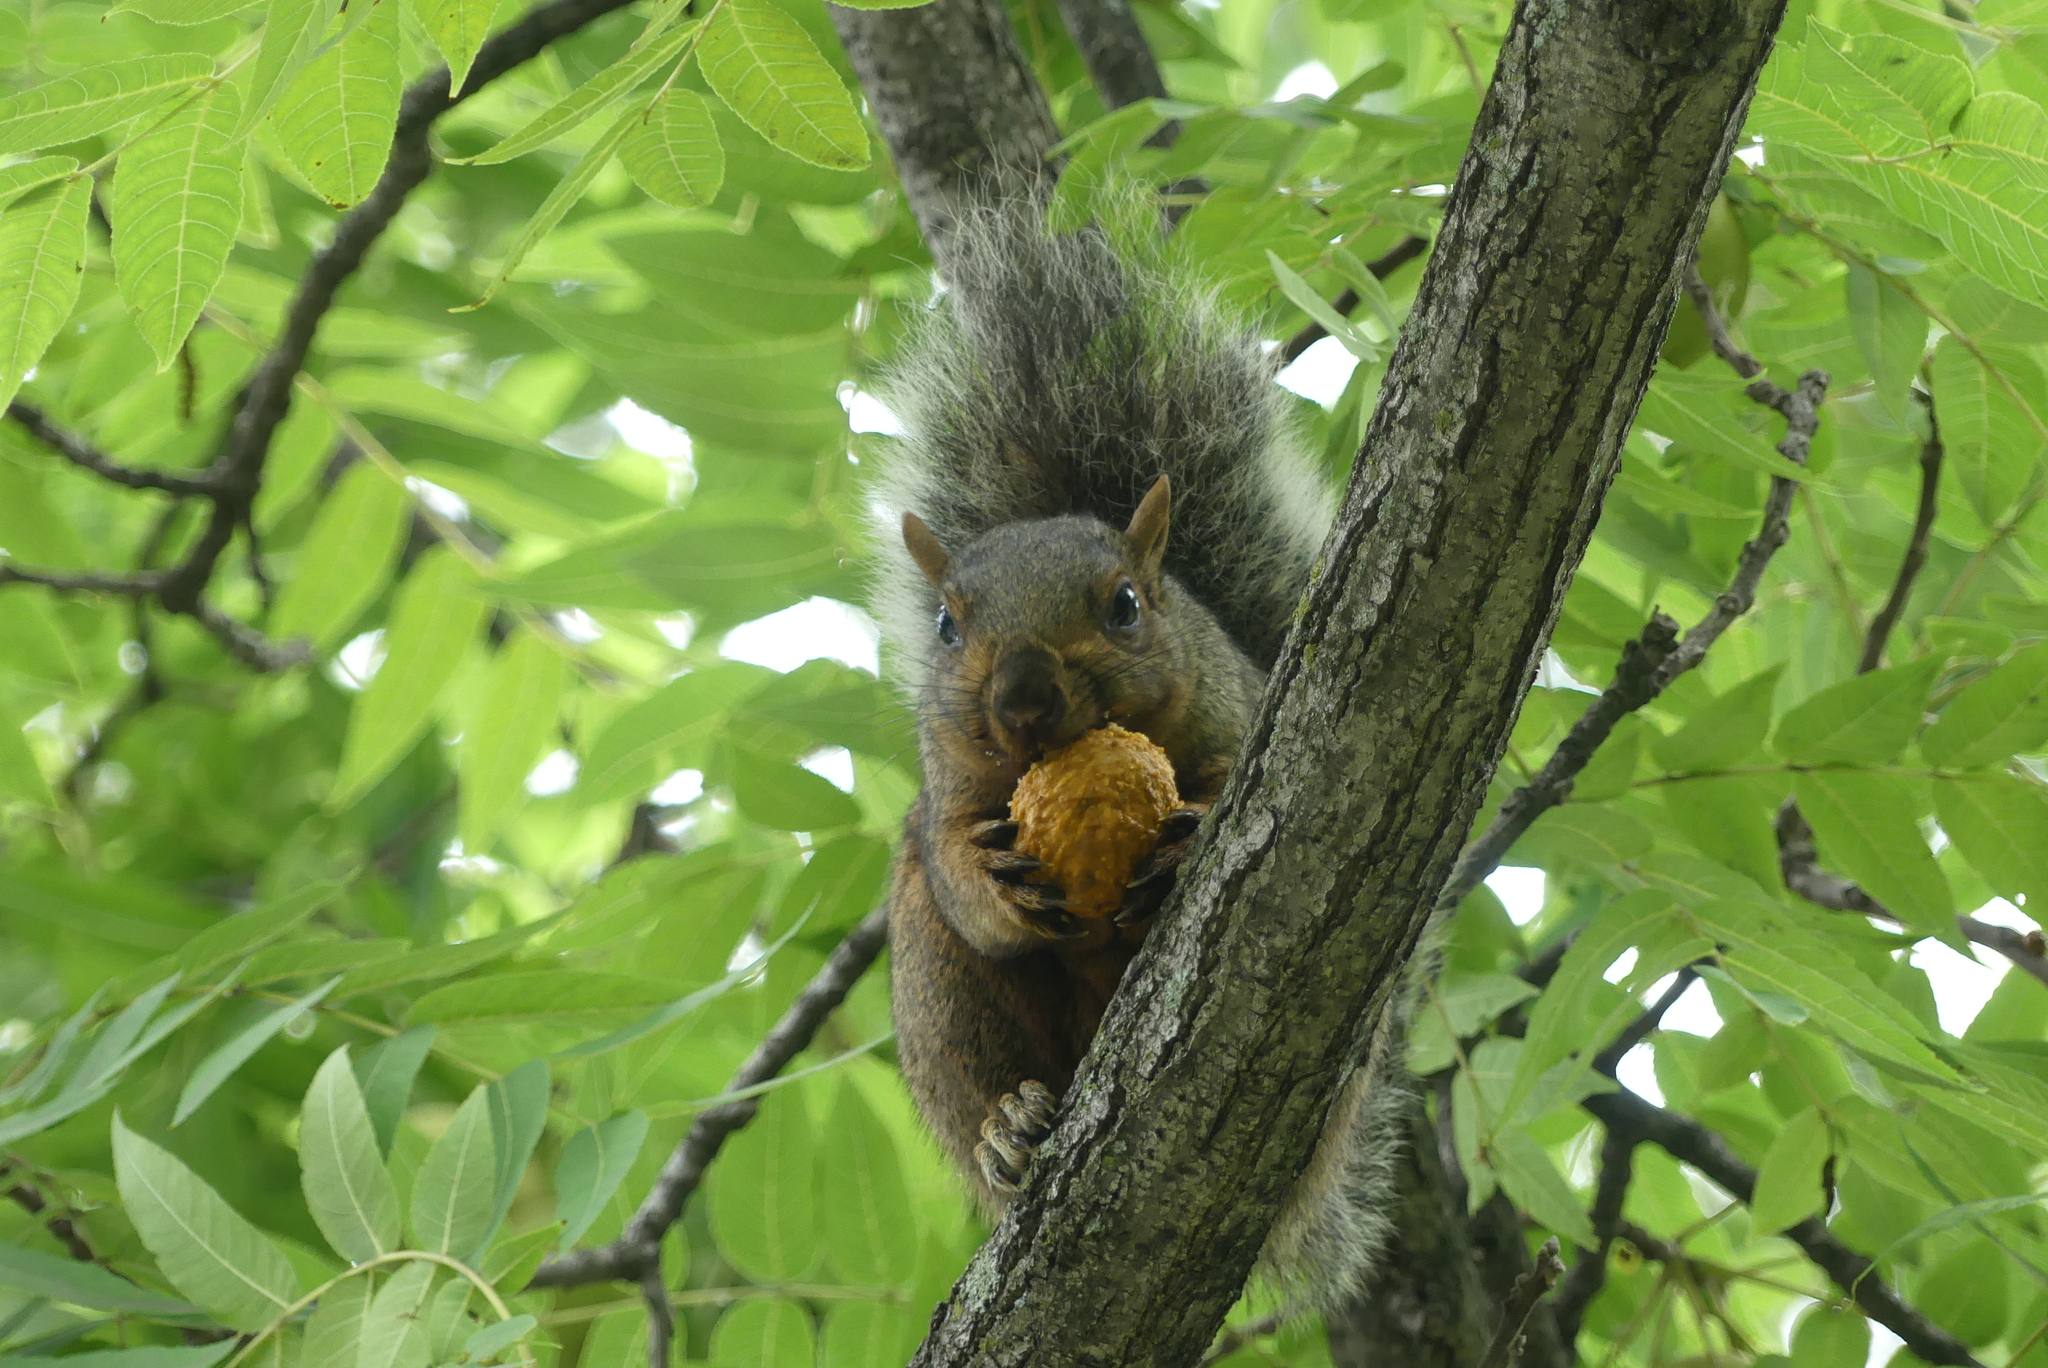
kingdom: Animalia
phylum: Chordata
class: Mammalia
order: Rodentia
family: Sciuridae
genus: Sciurus
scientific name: Sciurus carolinensis
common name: Eastern gray squirrel
